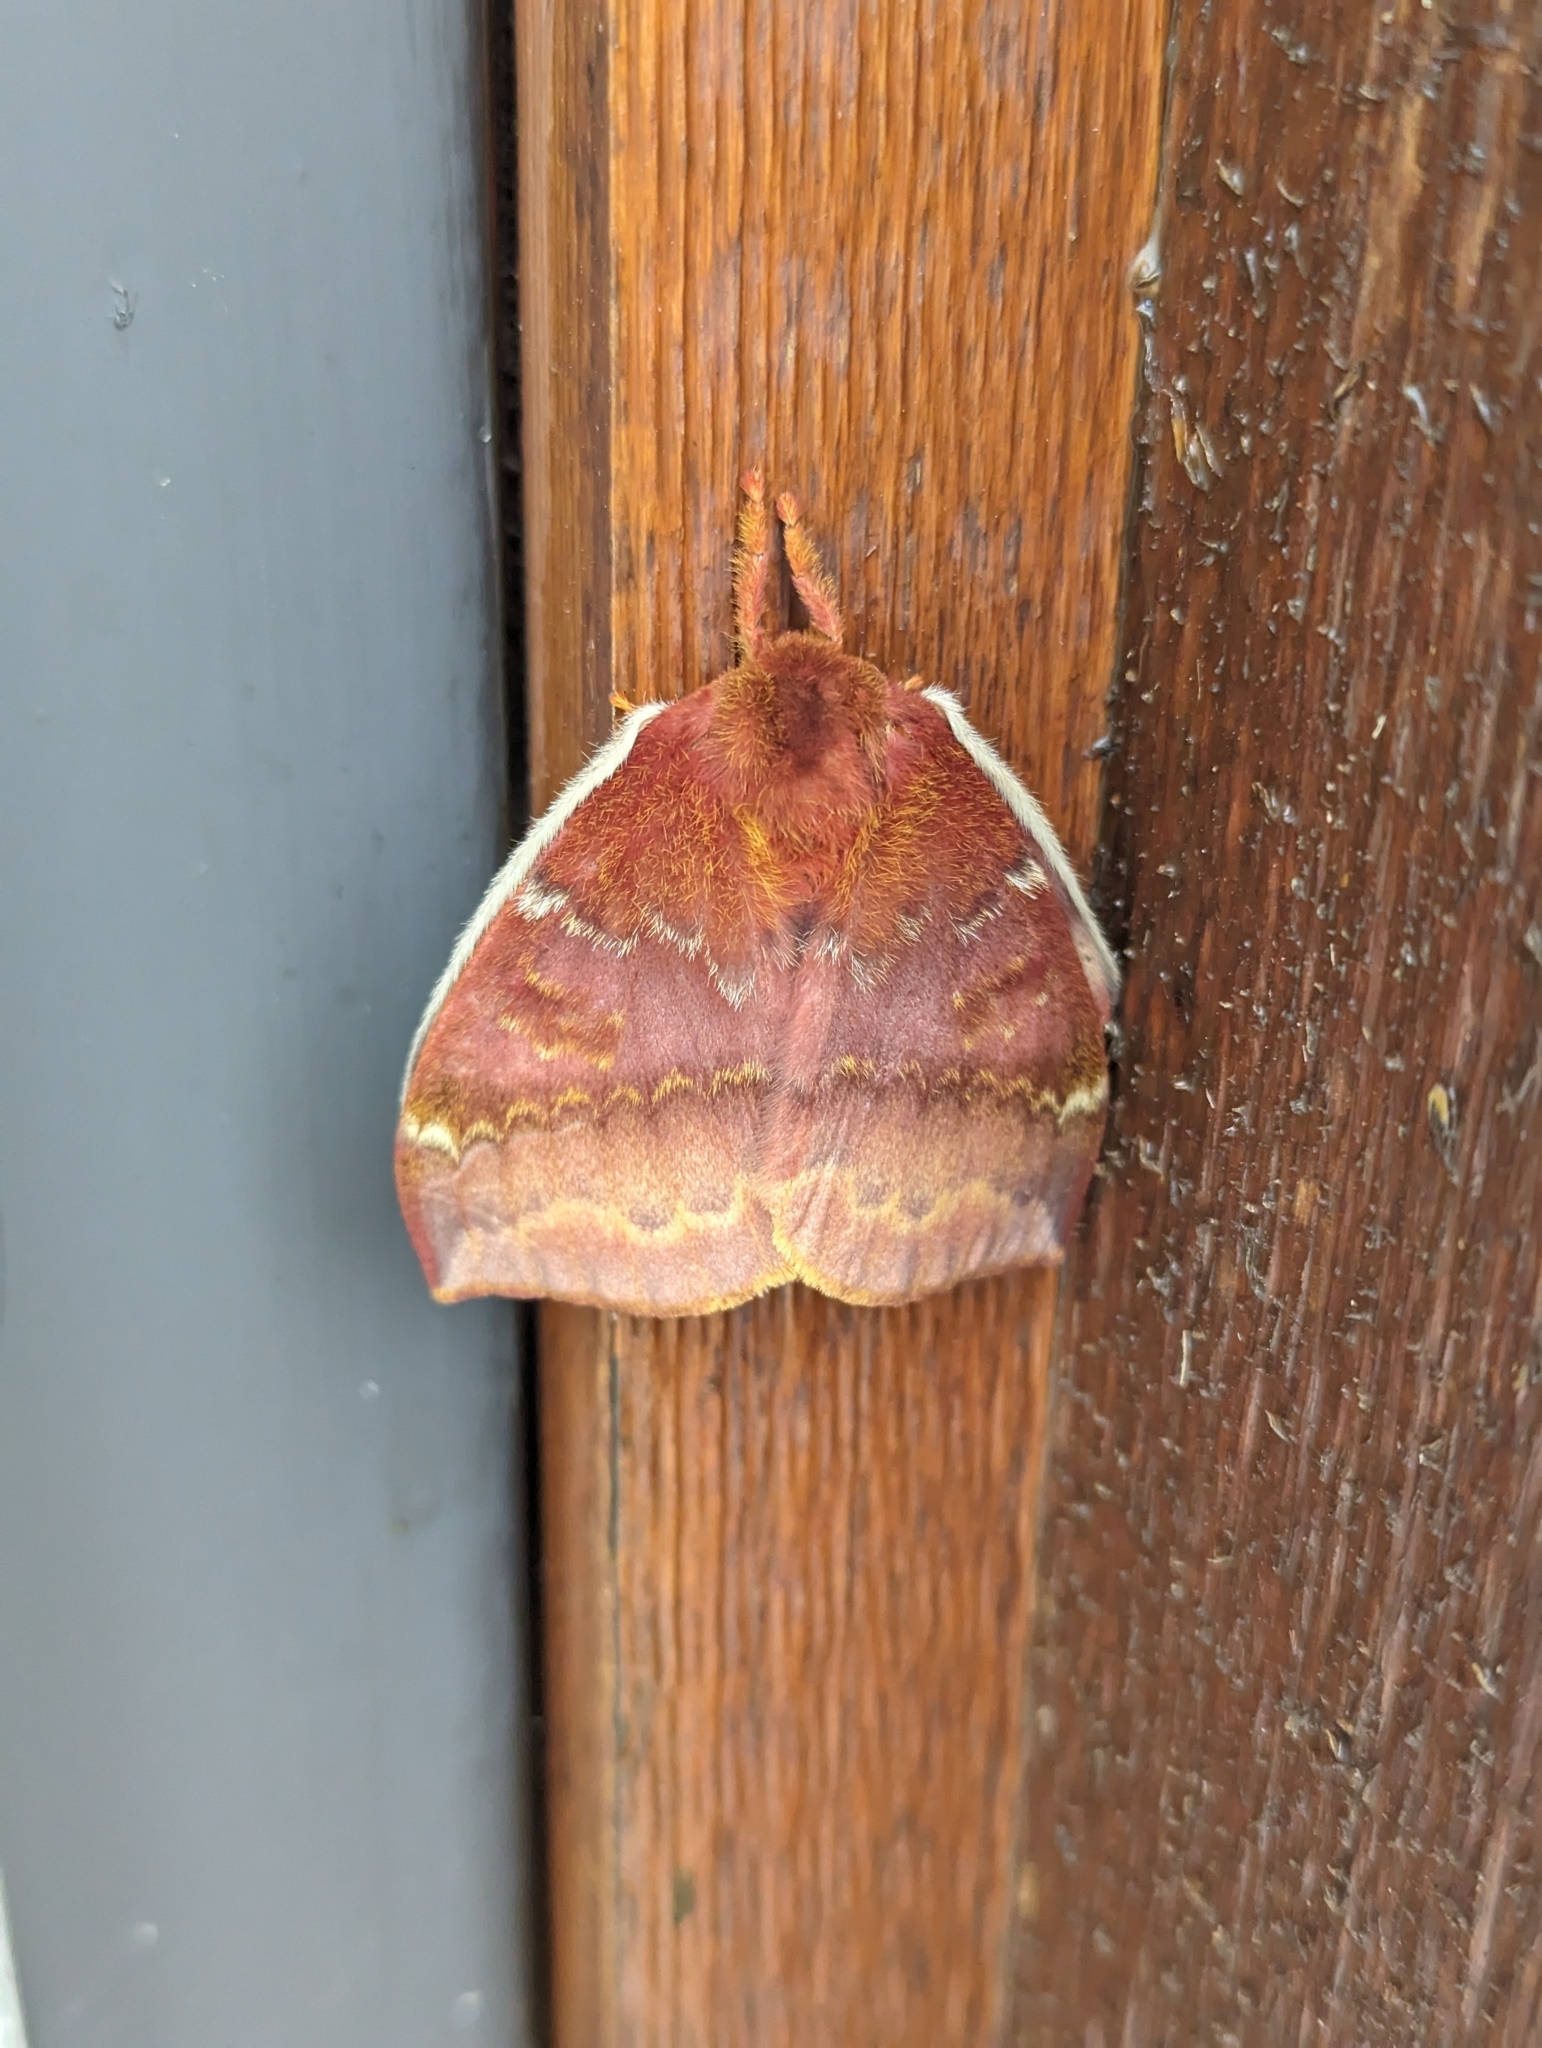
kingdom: Animalia
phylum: Arthropoda
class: Insecta
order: Lepidoptera
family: Saturniidae
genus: Automeris
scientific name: Automeris io
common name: Io moth
